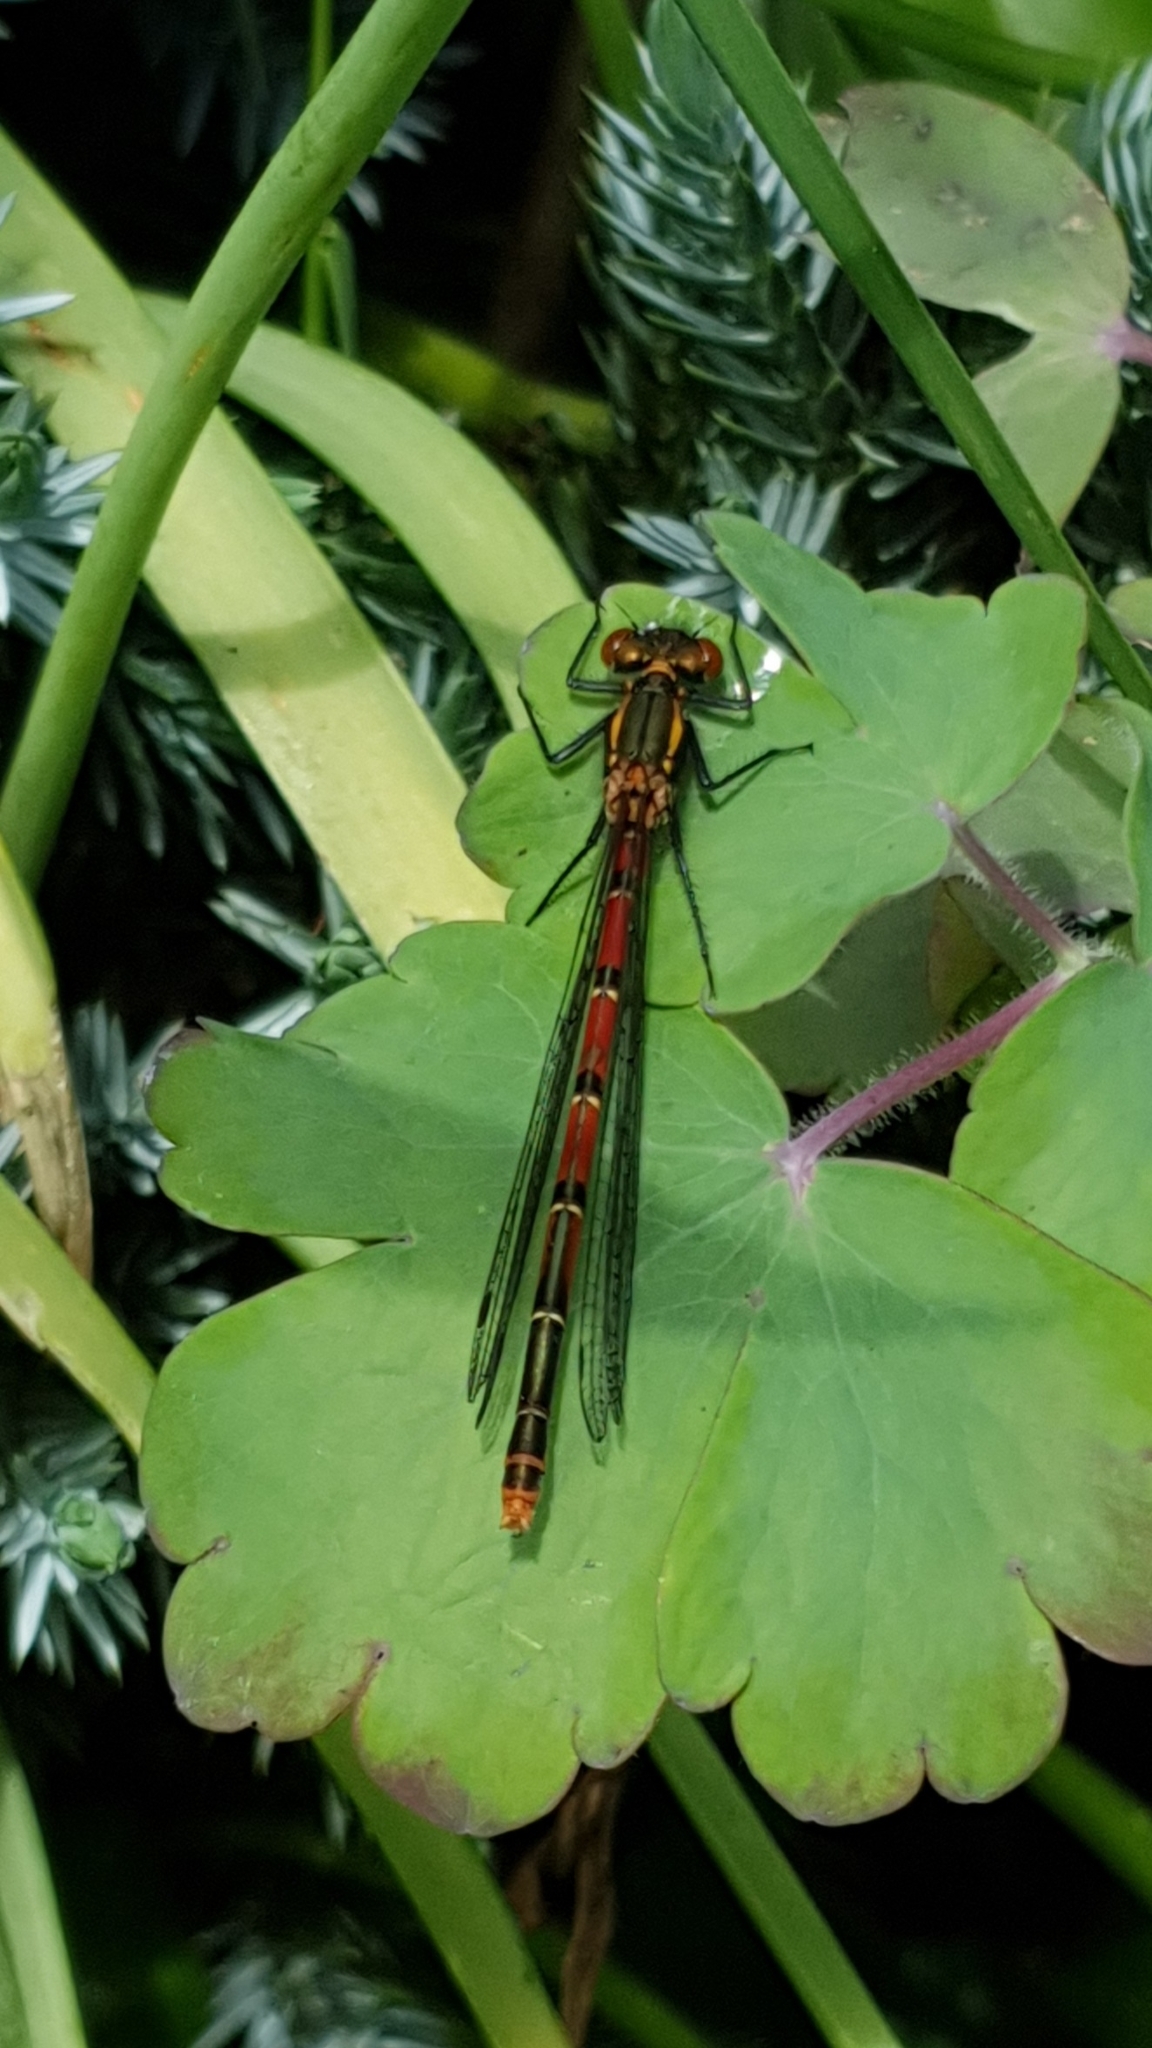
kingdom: Animalia
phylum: Arthropoda
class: Insecta
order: Odonata
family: Coenagrionidae
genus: Pyrrhosoma
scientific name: Pyrrhosoma nymphula
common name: Large red damsel
